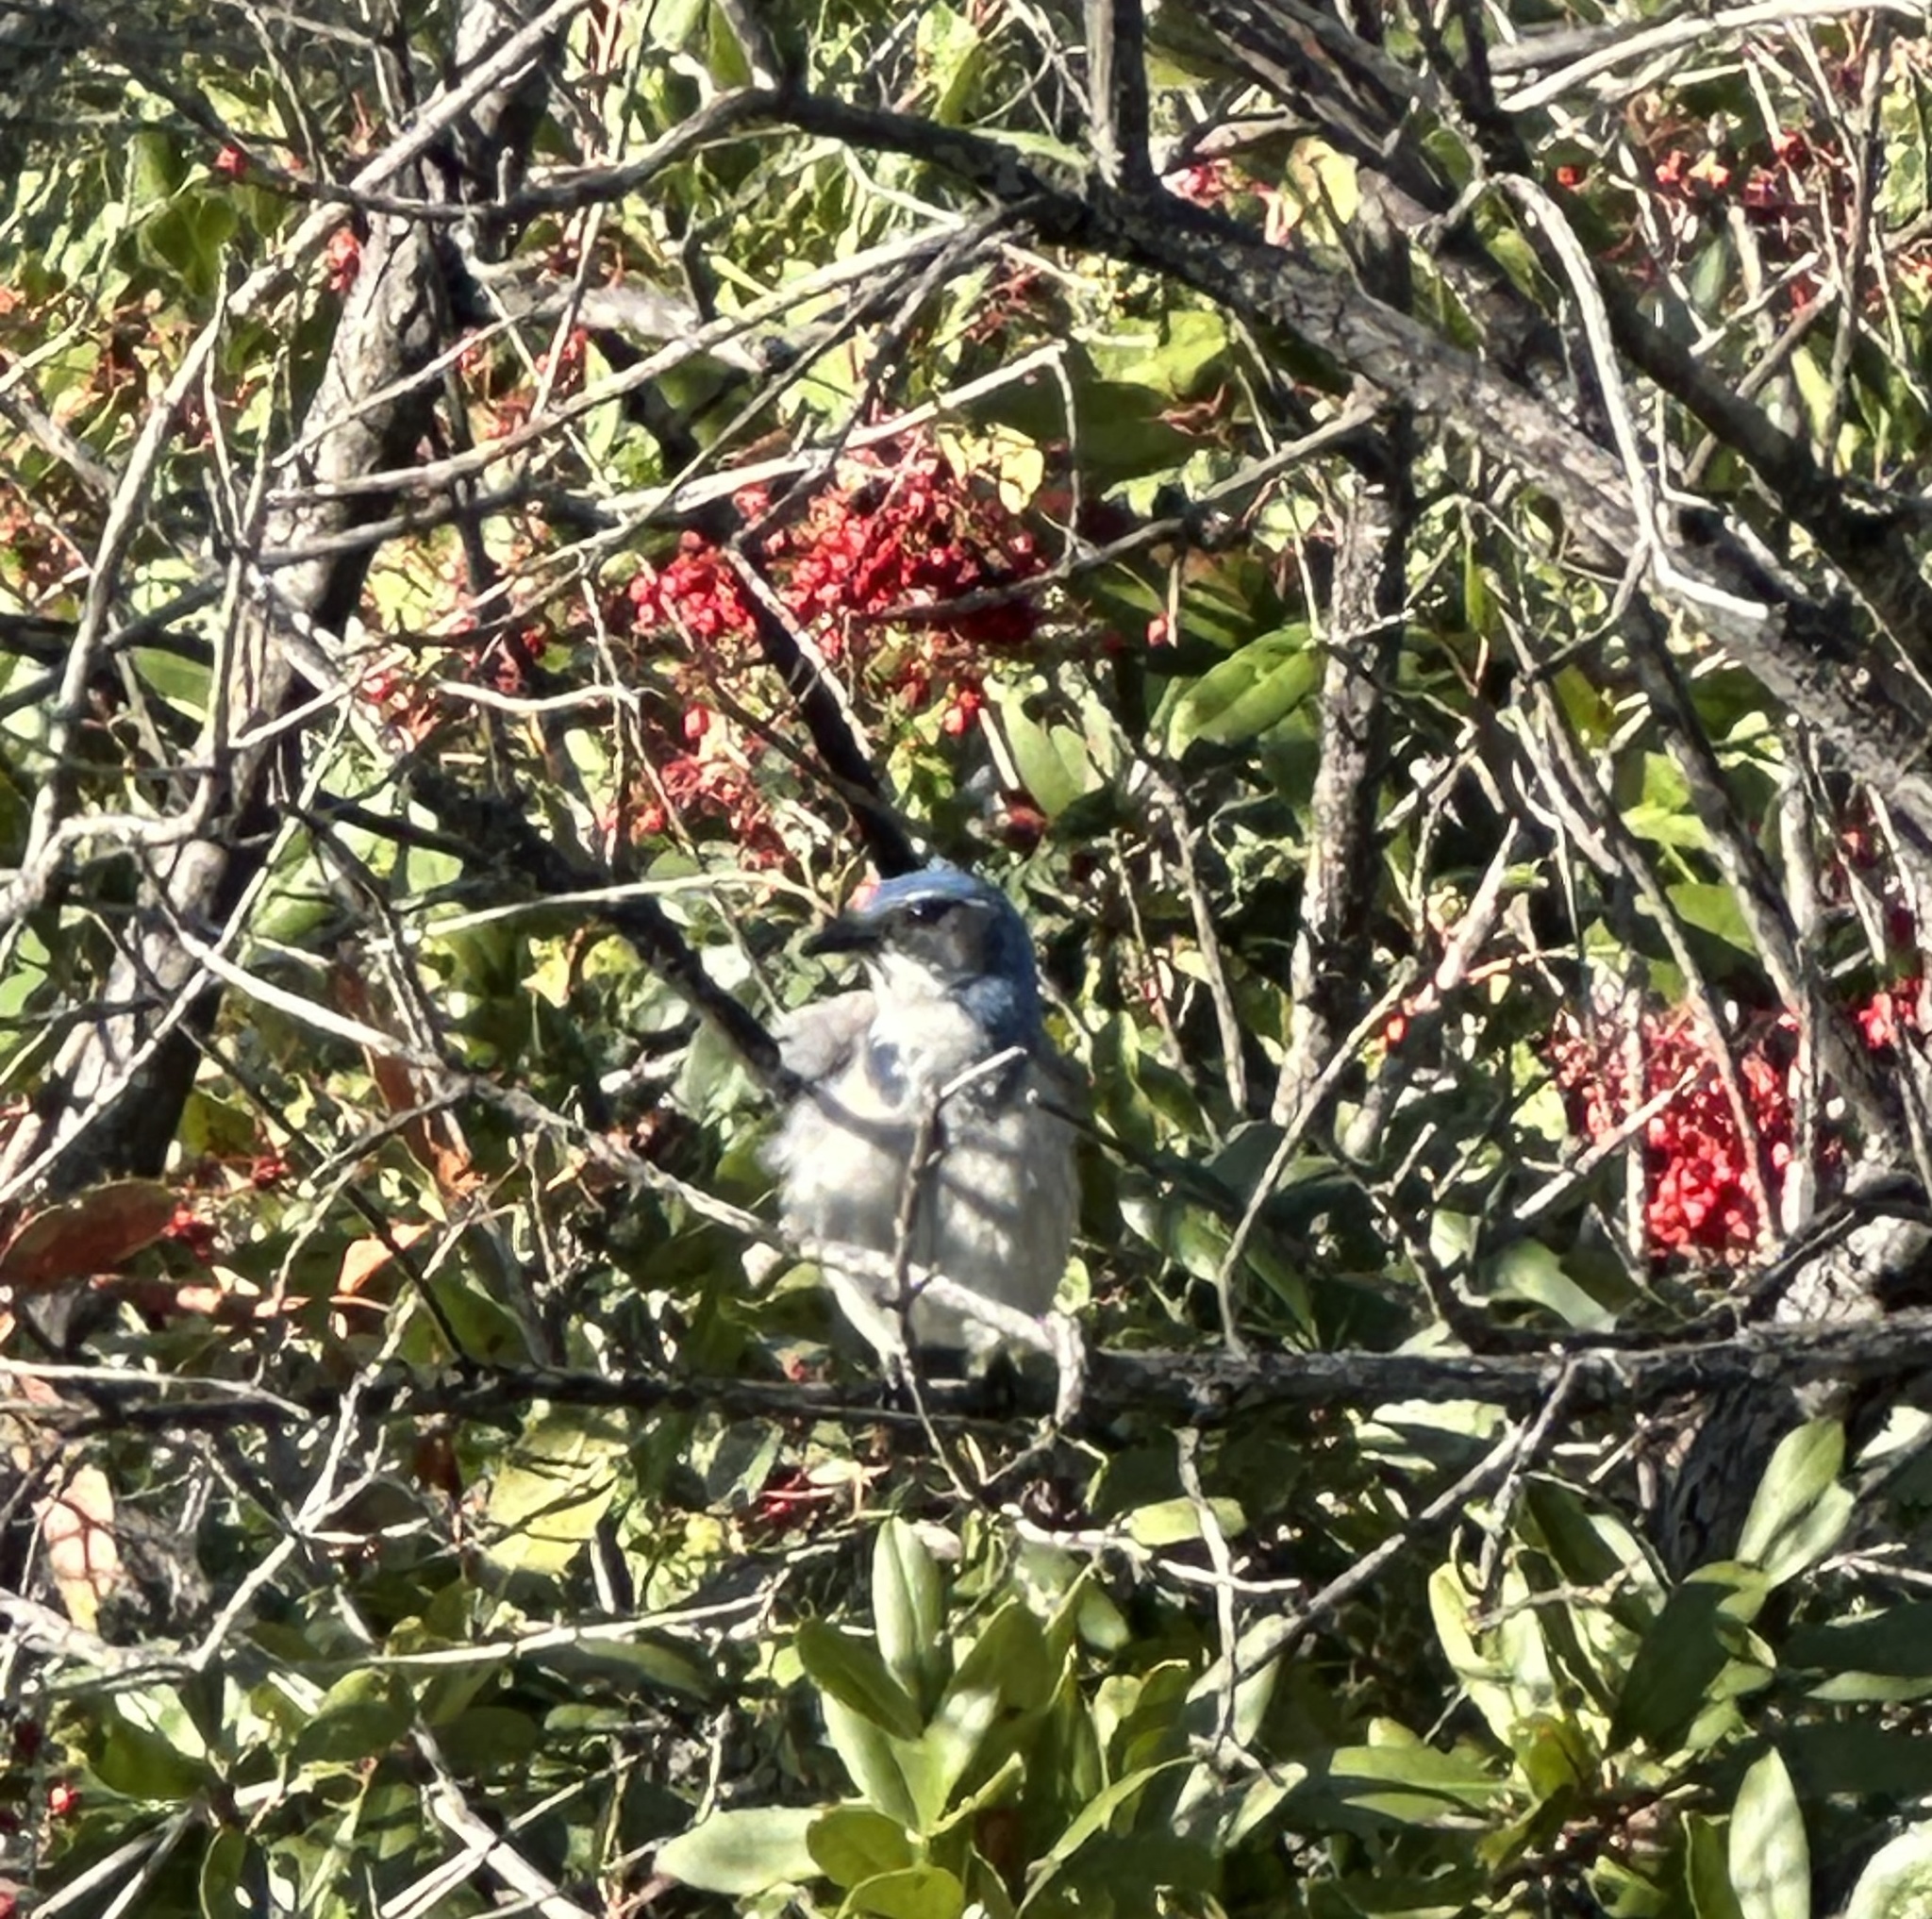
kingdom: Animalia
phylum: Chordata
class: Aves
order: Passeriformes
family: Corvidae
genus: Aphelocoma
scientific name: Aphelocoma californica
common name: California scrub-jay
